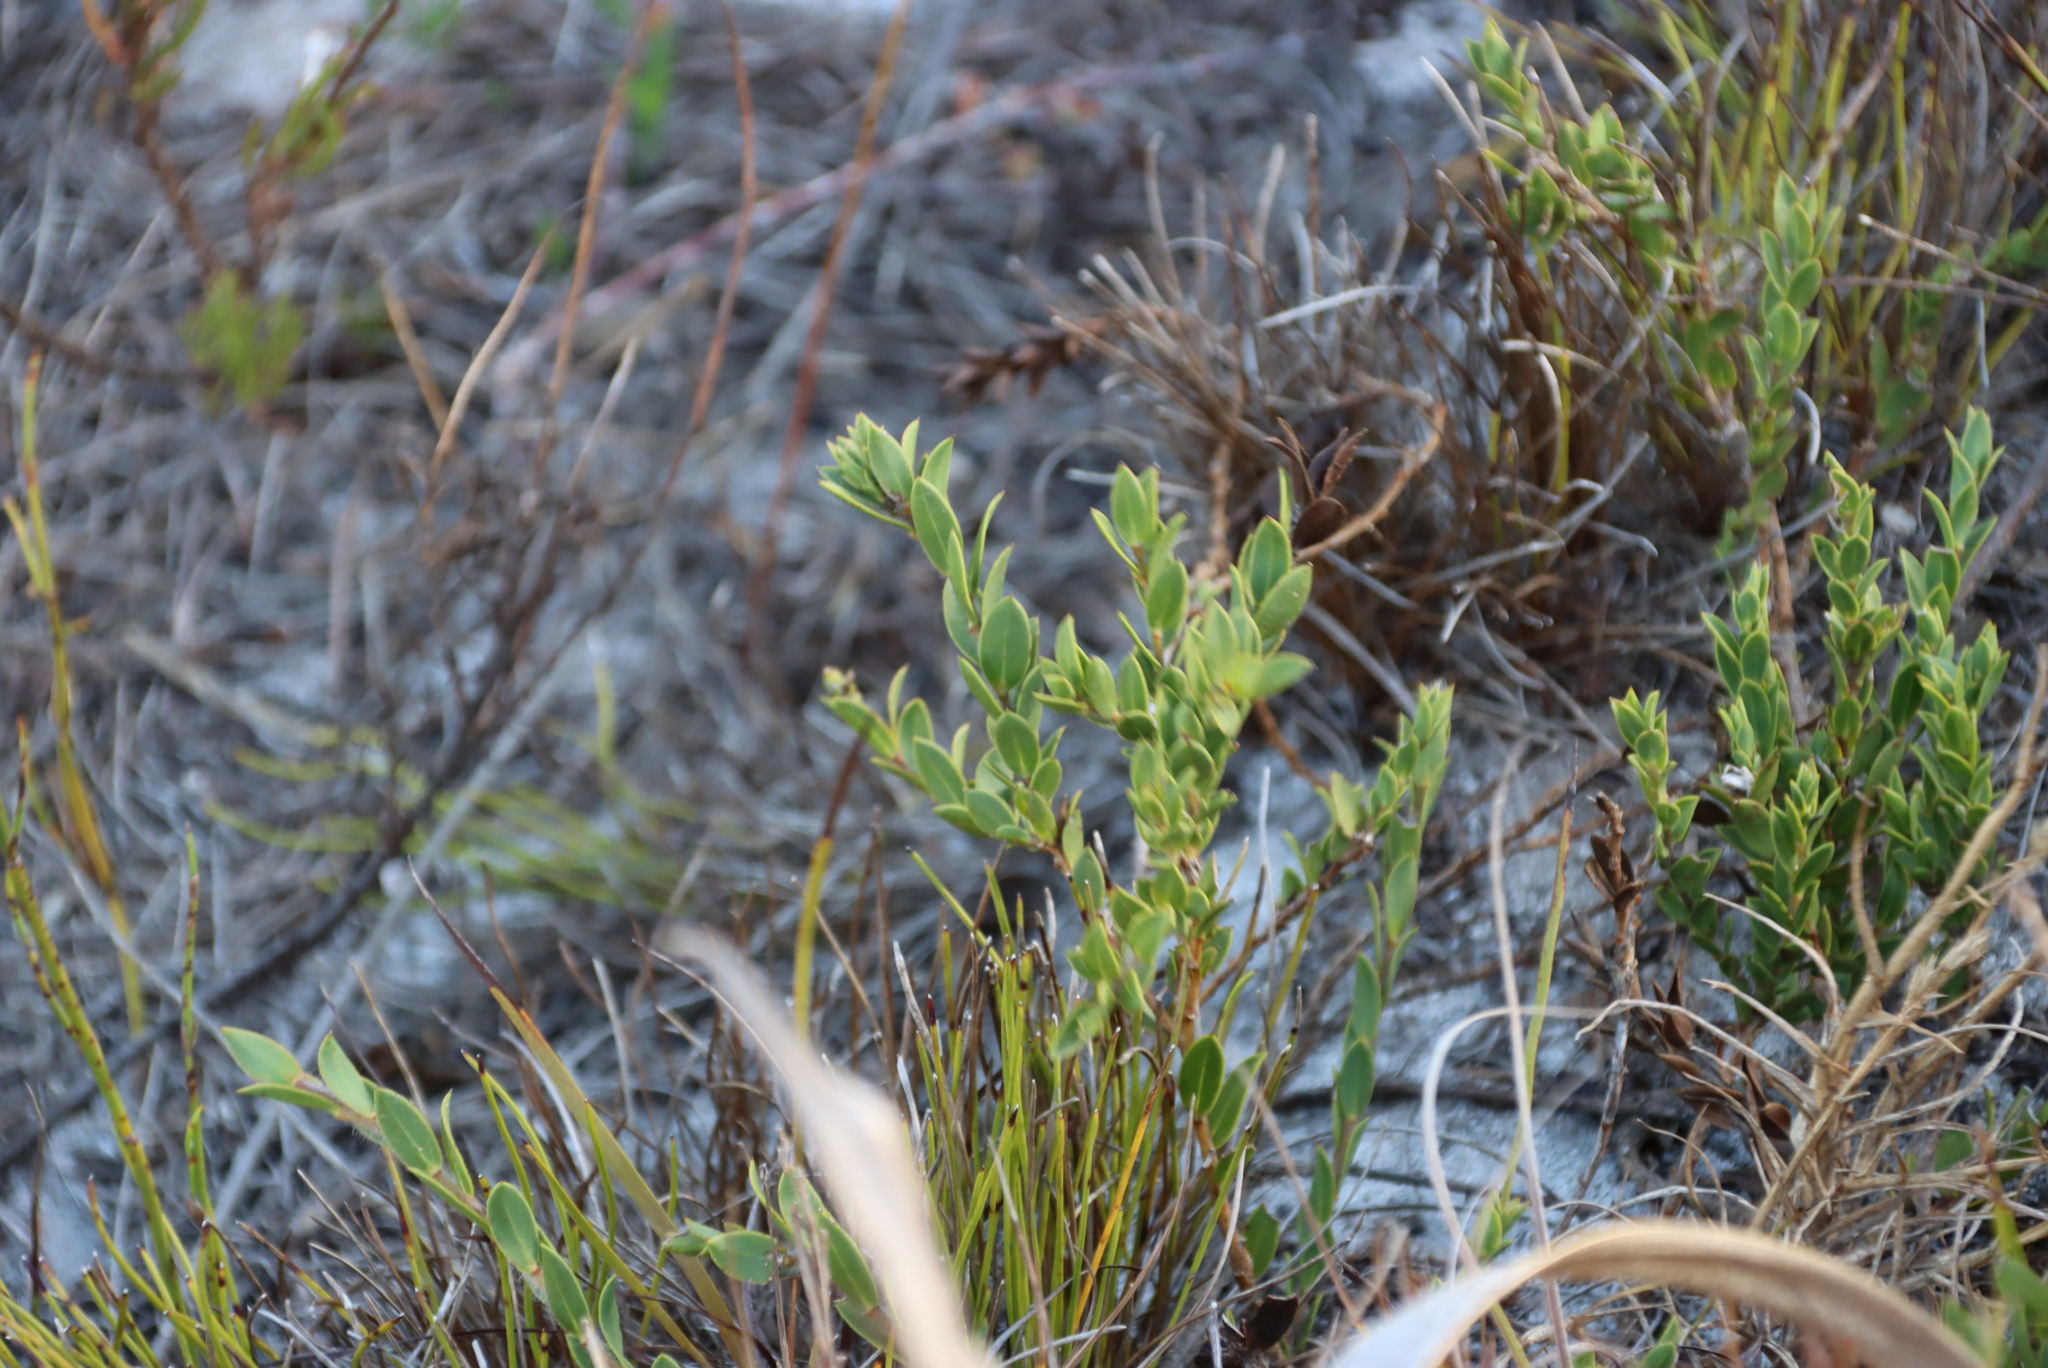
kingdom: Plantae
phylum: Tracheophyta
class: Magnoliopsida
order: Fabales
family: Fabaceae
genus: Liparia
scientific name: Liparia parva
